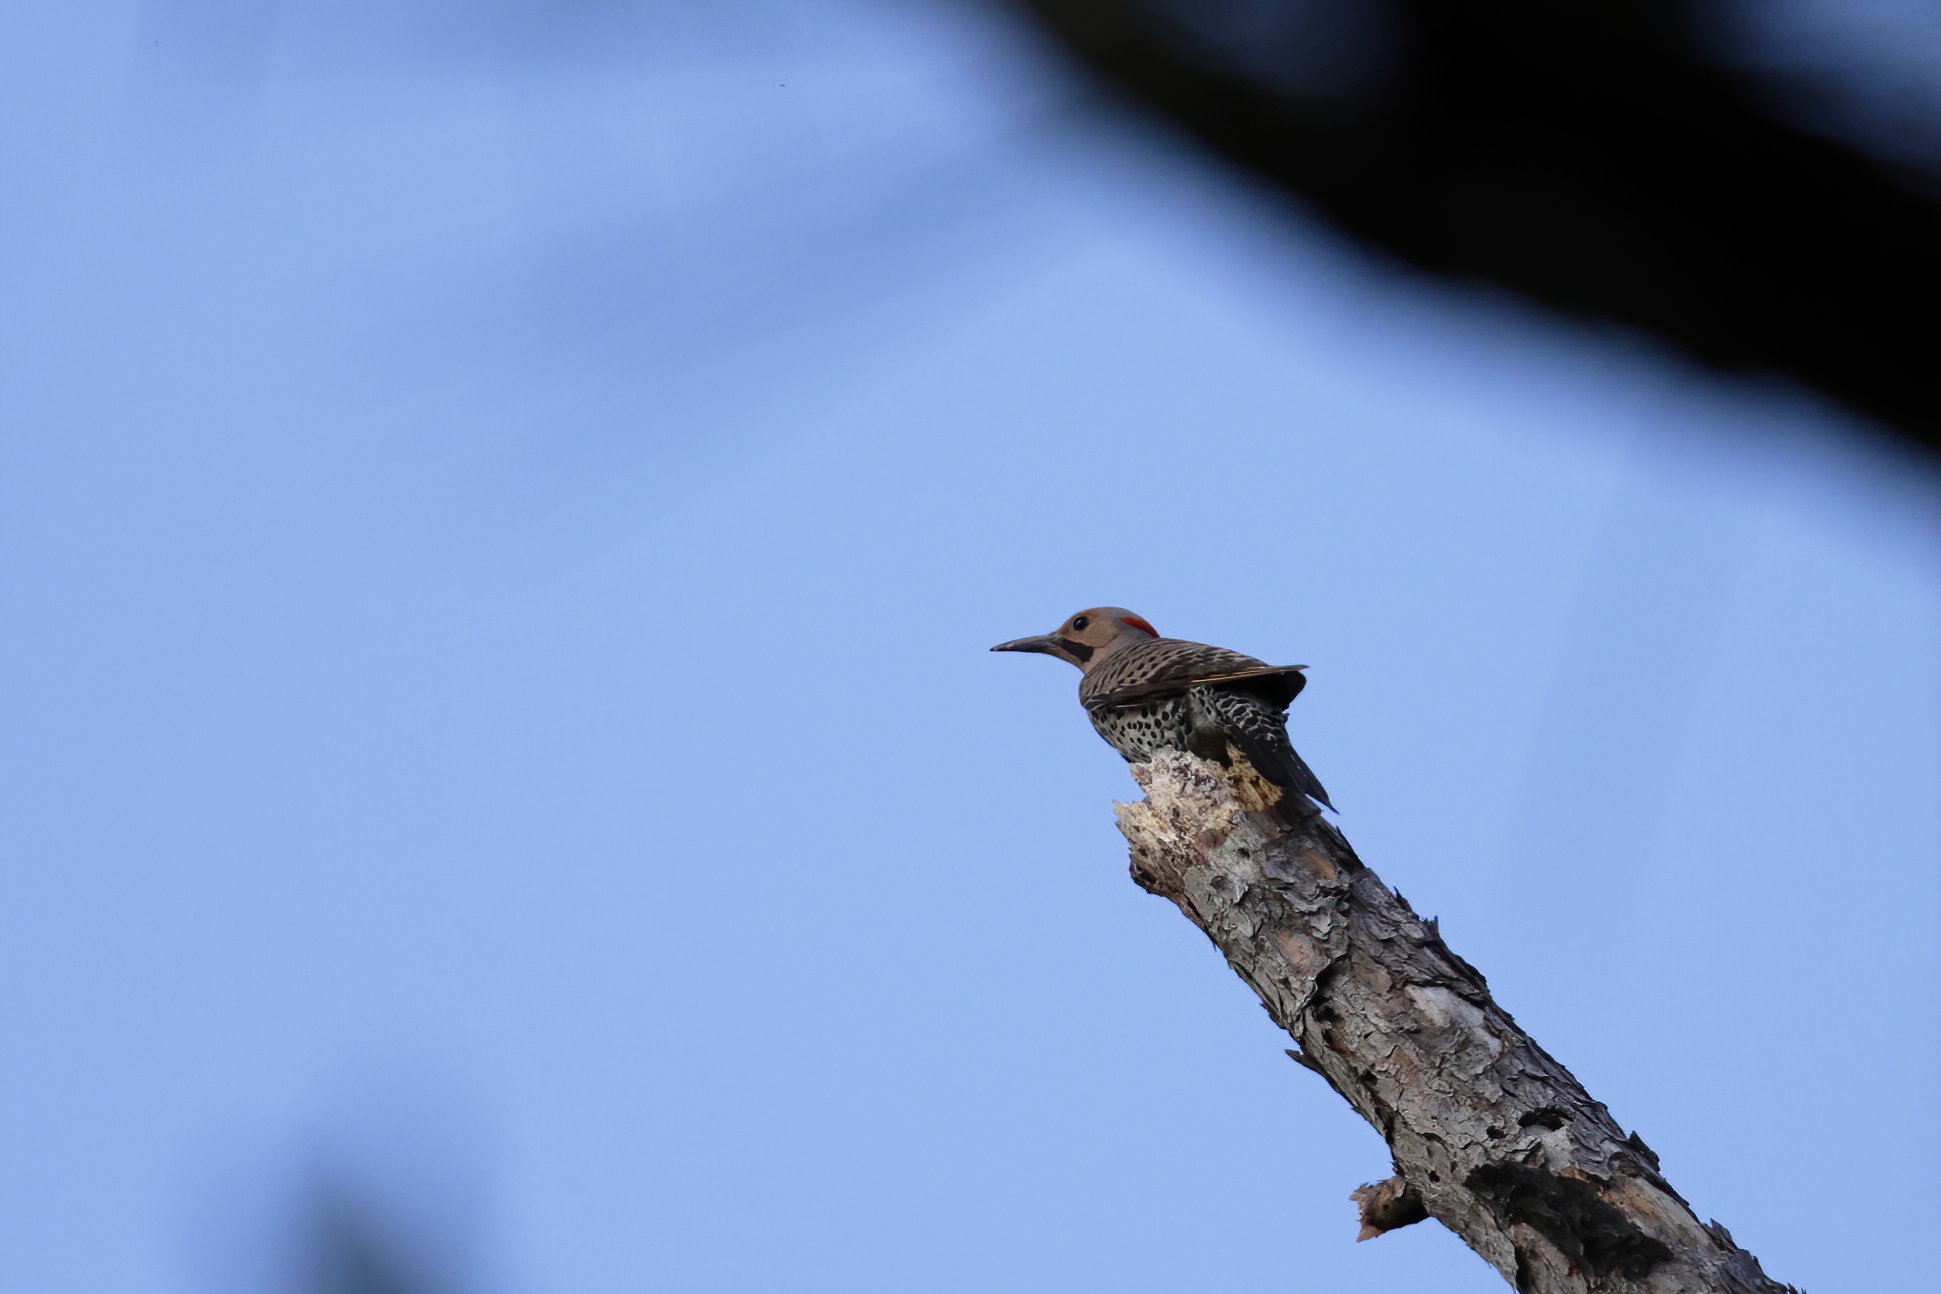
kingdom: Animalia
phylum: Chordata
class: Aves
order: Piciformes
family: Picidae
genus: Colaptes
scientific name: Colaptes auratus
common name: Northern flicker
